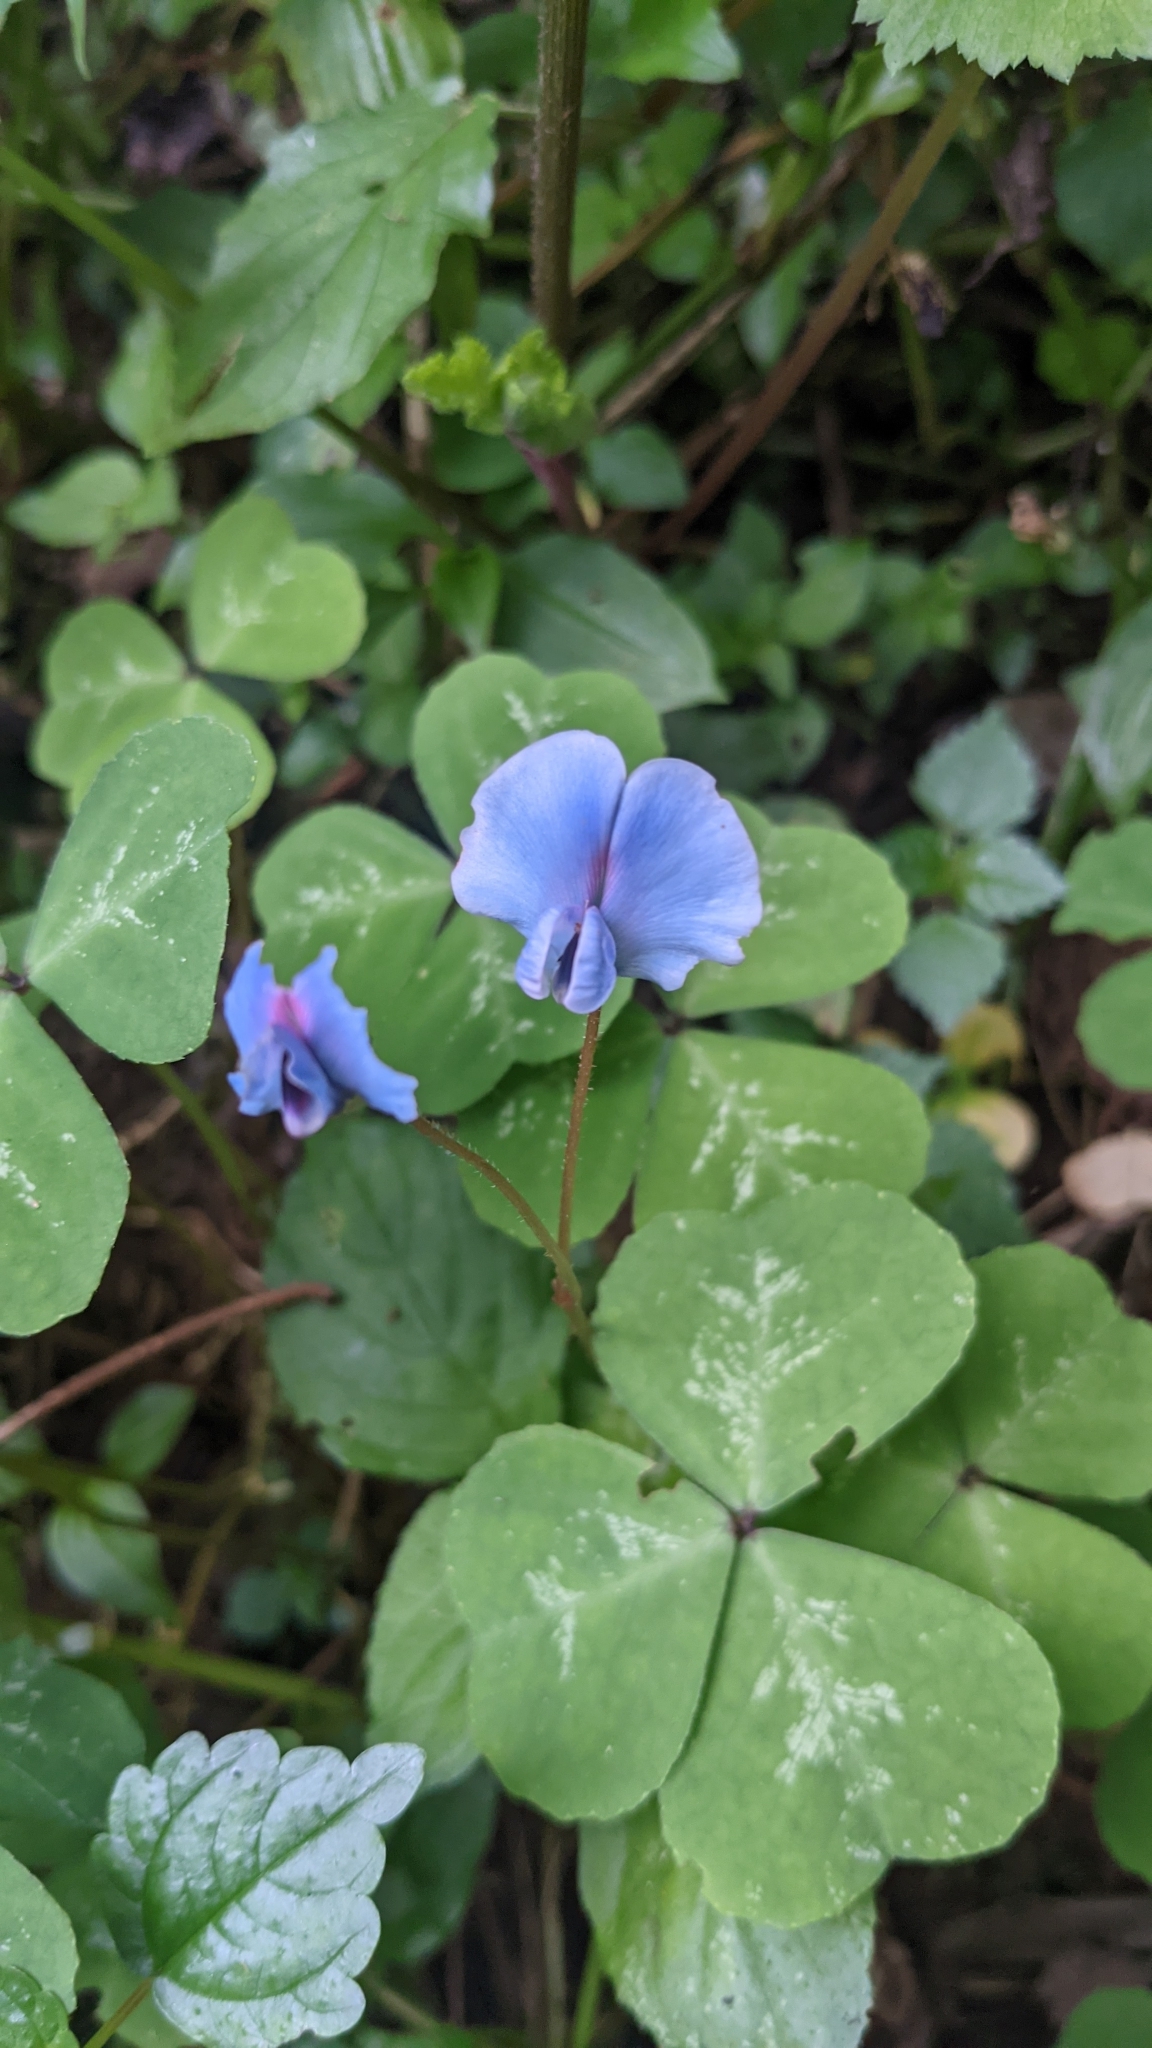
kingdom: Plantae
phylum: Tracheophyta
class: Magnoliopsida
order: Fabales
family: Fabaceae
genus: Parochetus
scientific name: Parochetus africanus
